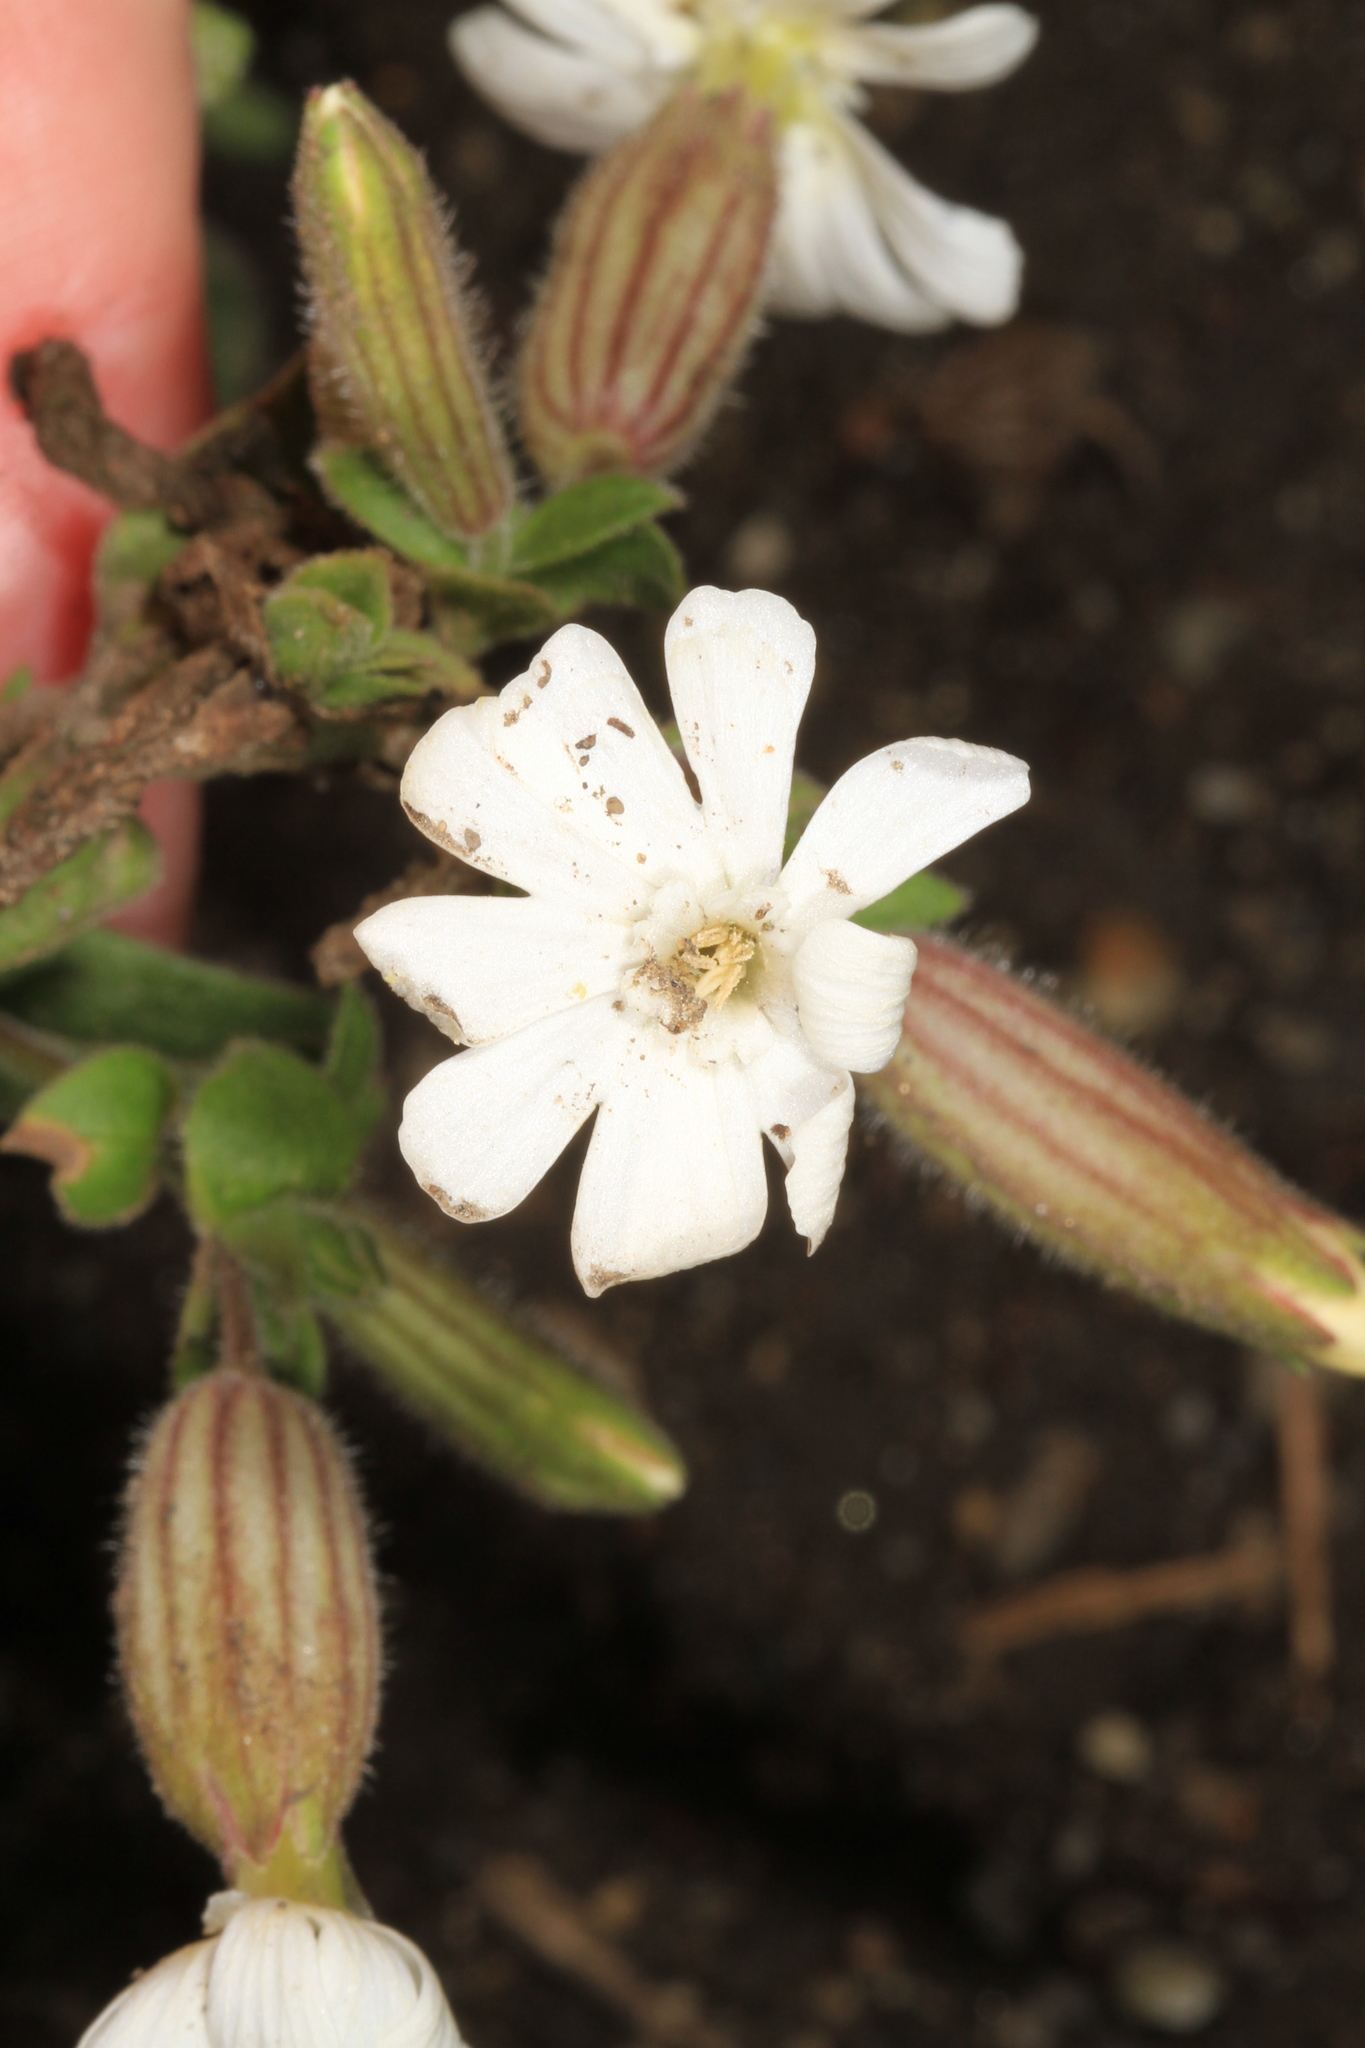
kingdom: Plantae
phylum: Tracheophyta
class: Magnoliopsida
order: Caryophyllales
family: Caryophyllaceae
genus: Silene
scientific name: Silene latifolia
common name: White campion
